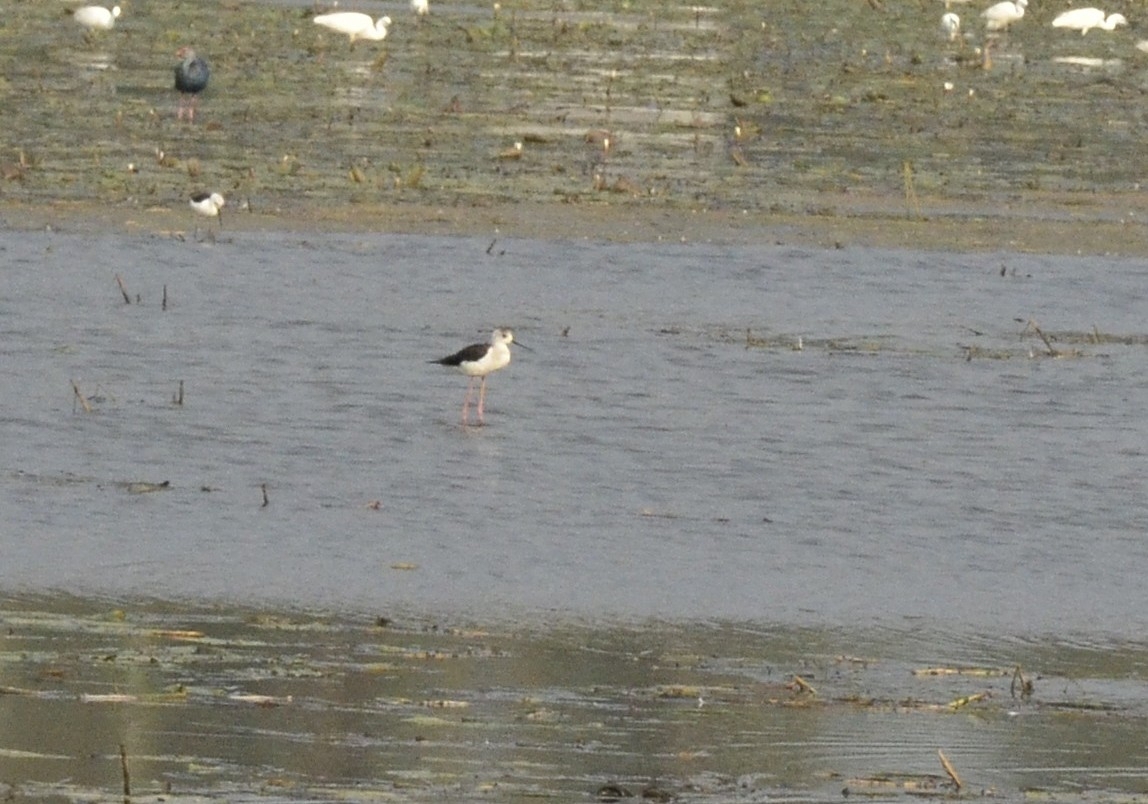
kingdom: Animalia
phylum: Chordata
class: Aves
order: Charadriiformes
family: Recurvirostridae
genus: Himantopus
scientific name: Himantopus himantopus
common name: Black-winged stilt
